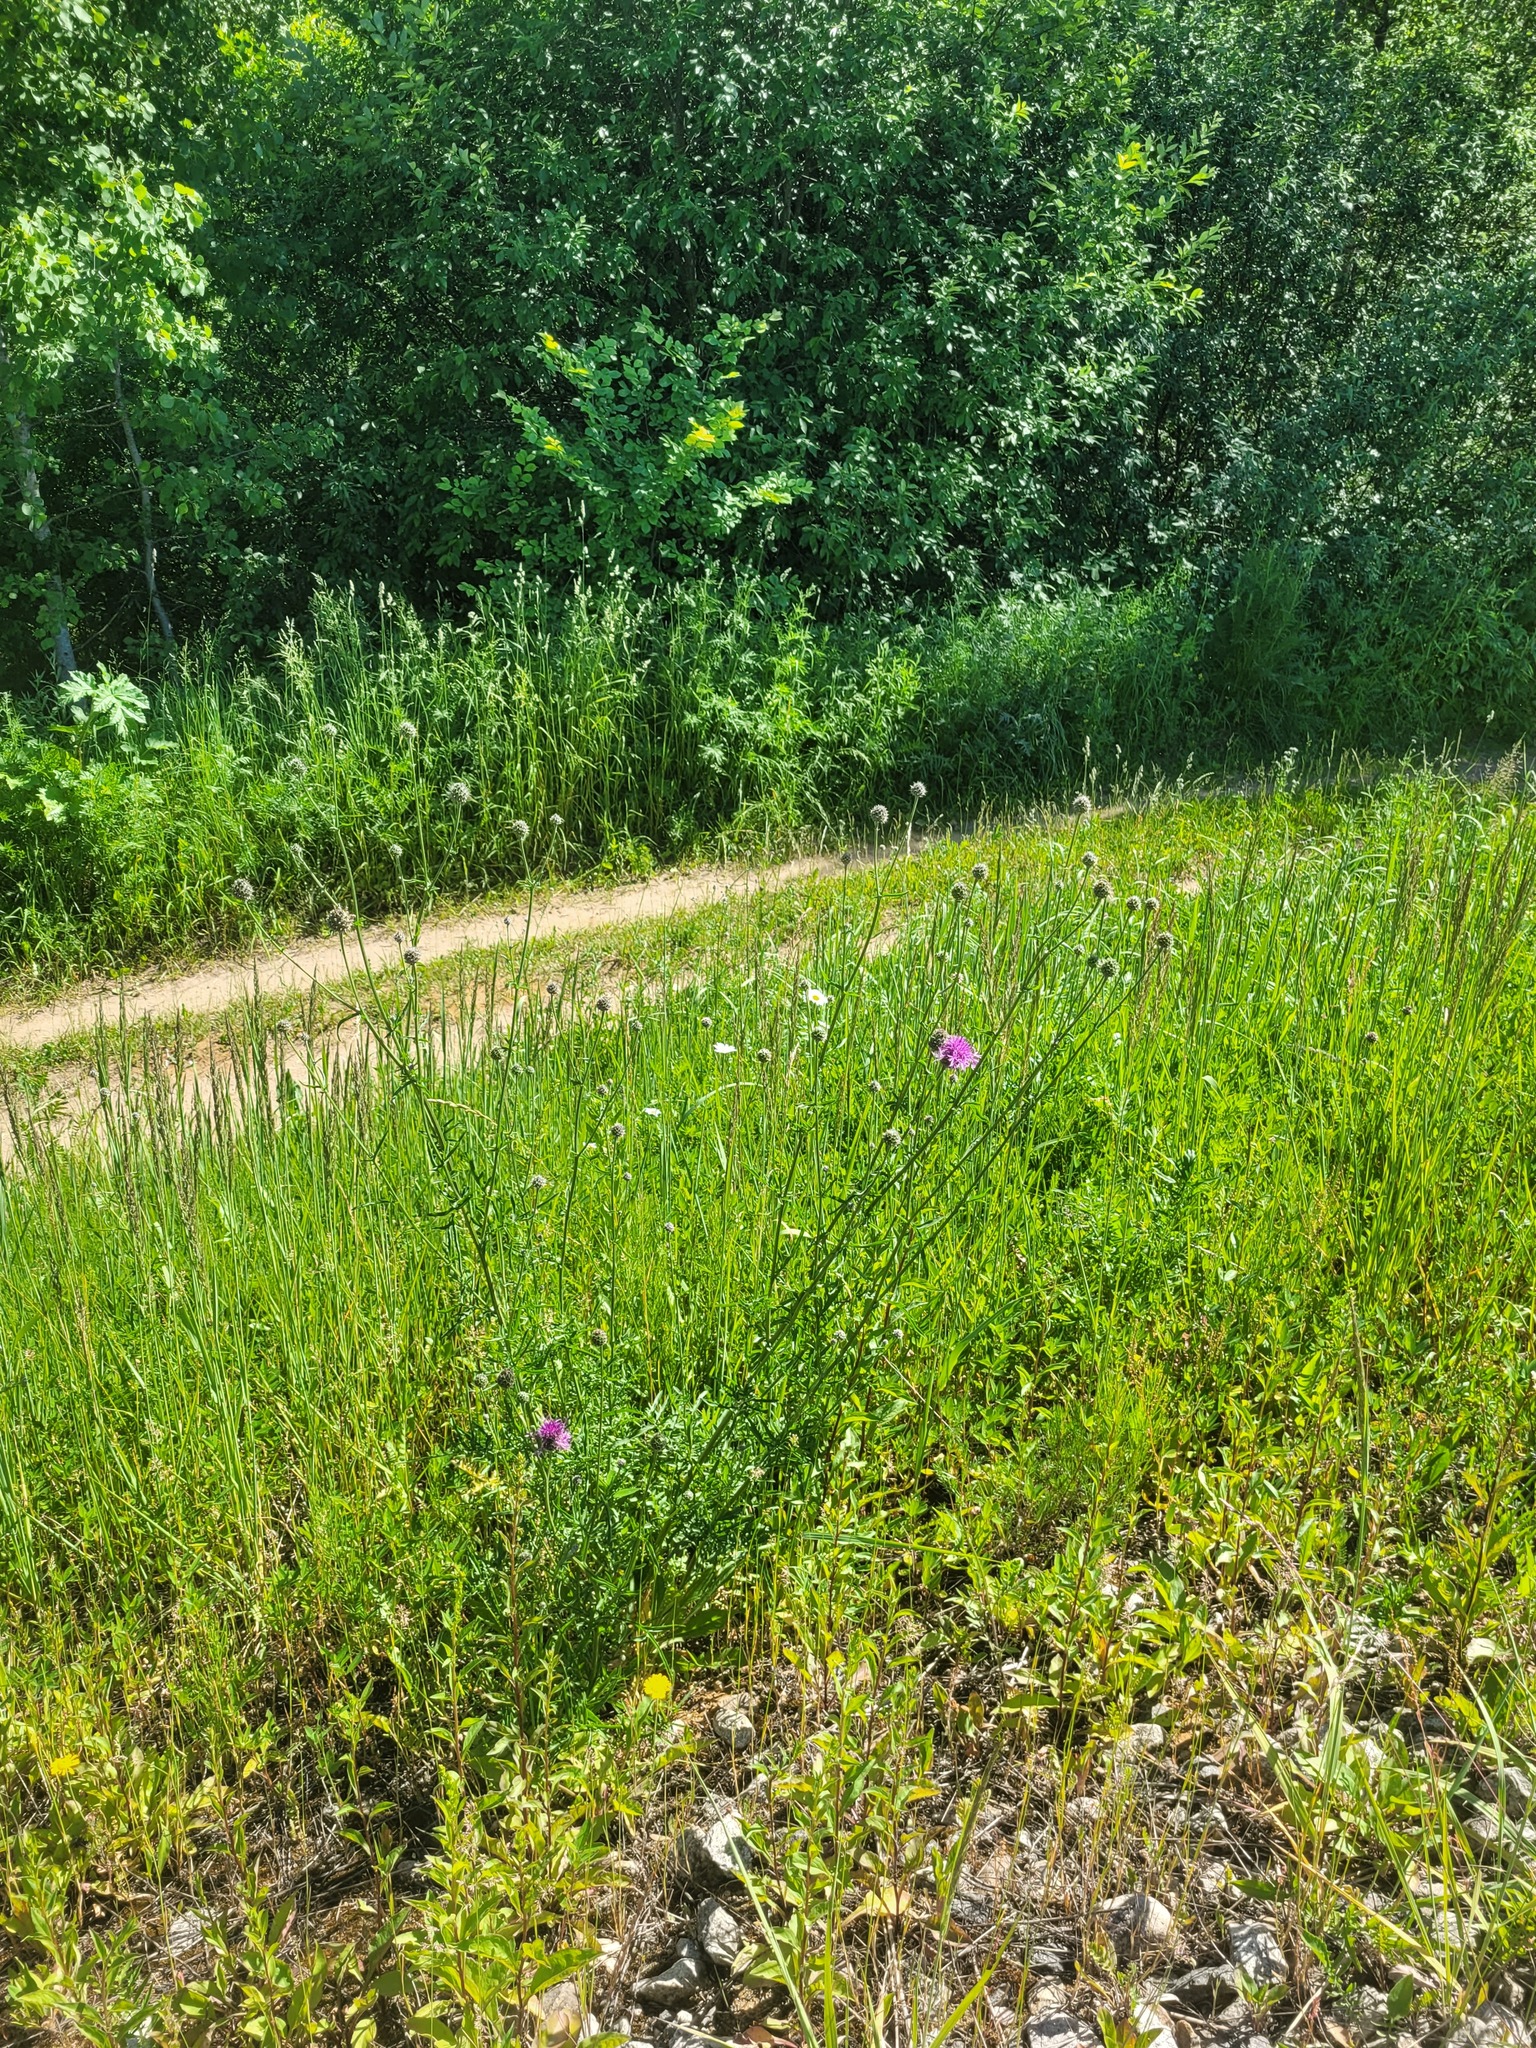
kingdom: Plantae
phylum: Tracheophyta
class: Magnoliopsida
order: Asterales
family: Asteraceae
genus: Centaurea
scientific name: Centaurea scabiosa
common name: Greater knapweed
